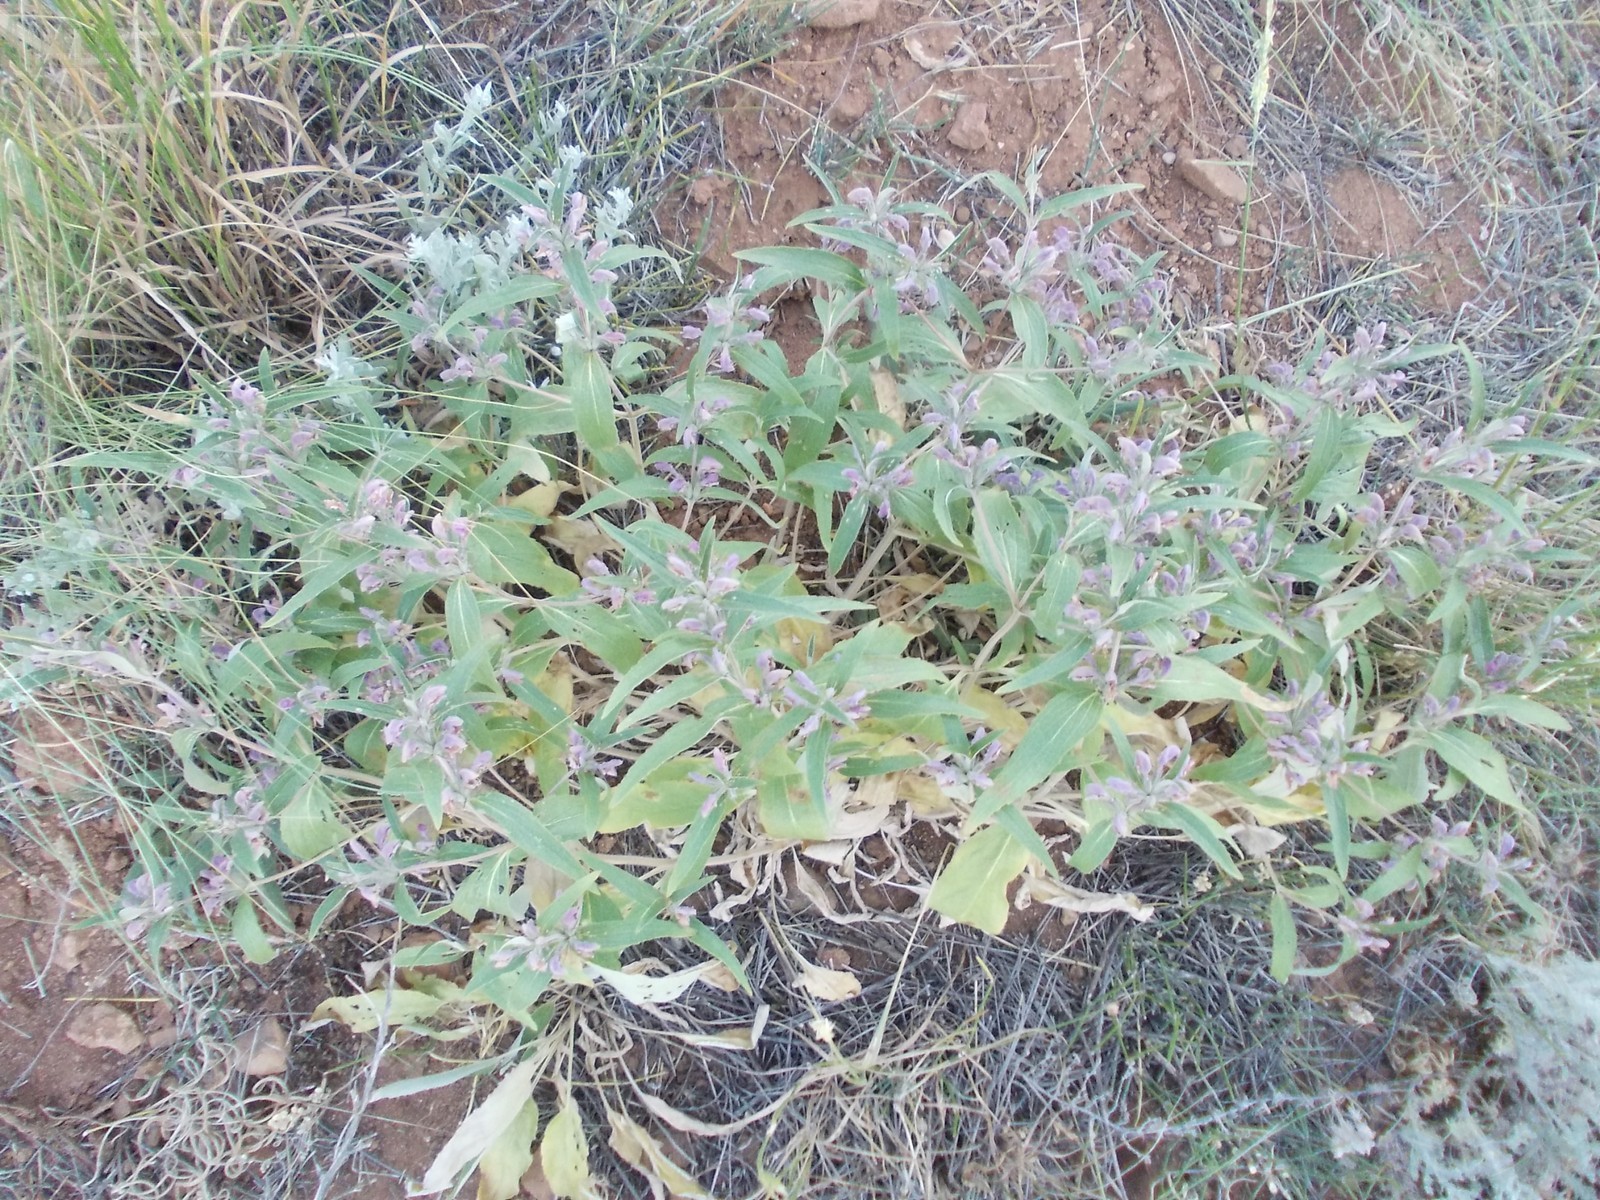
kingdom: Plantae
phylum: Tracheophyta
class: Magnoliopsida
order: Lamiales
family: Lamiaceae
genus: Phlomis
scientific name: Phlomis herba-venti
